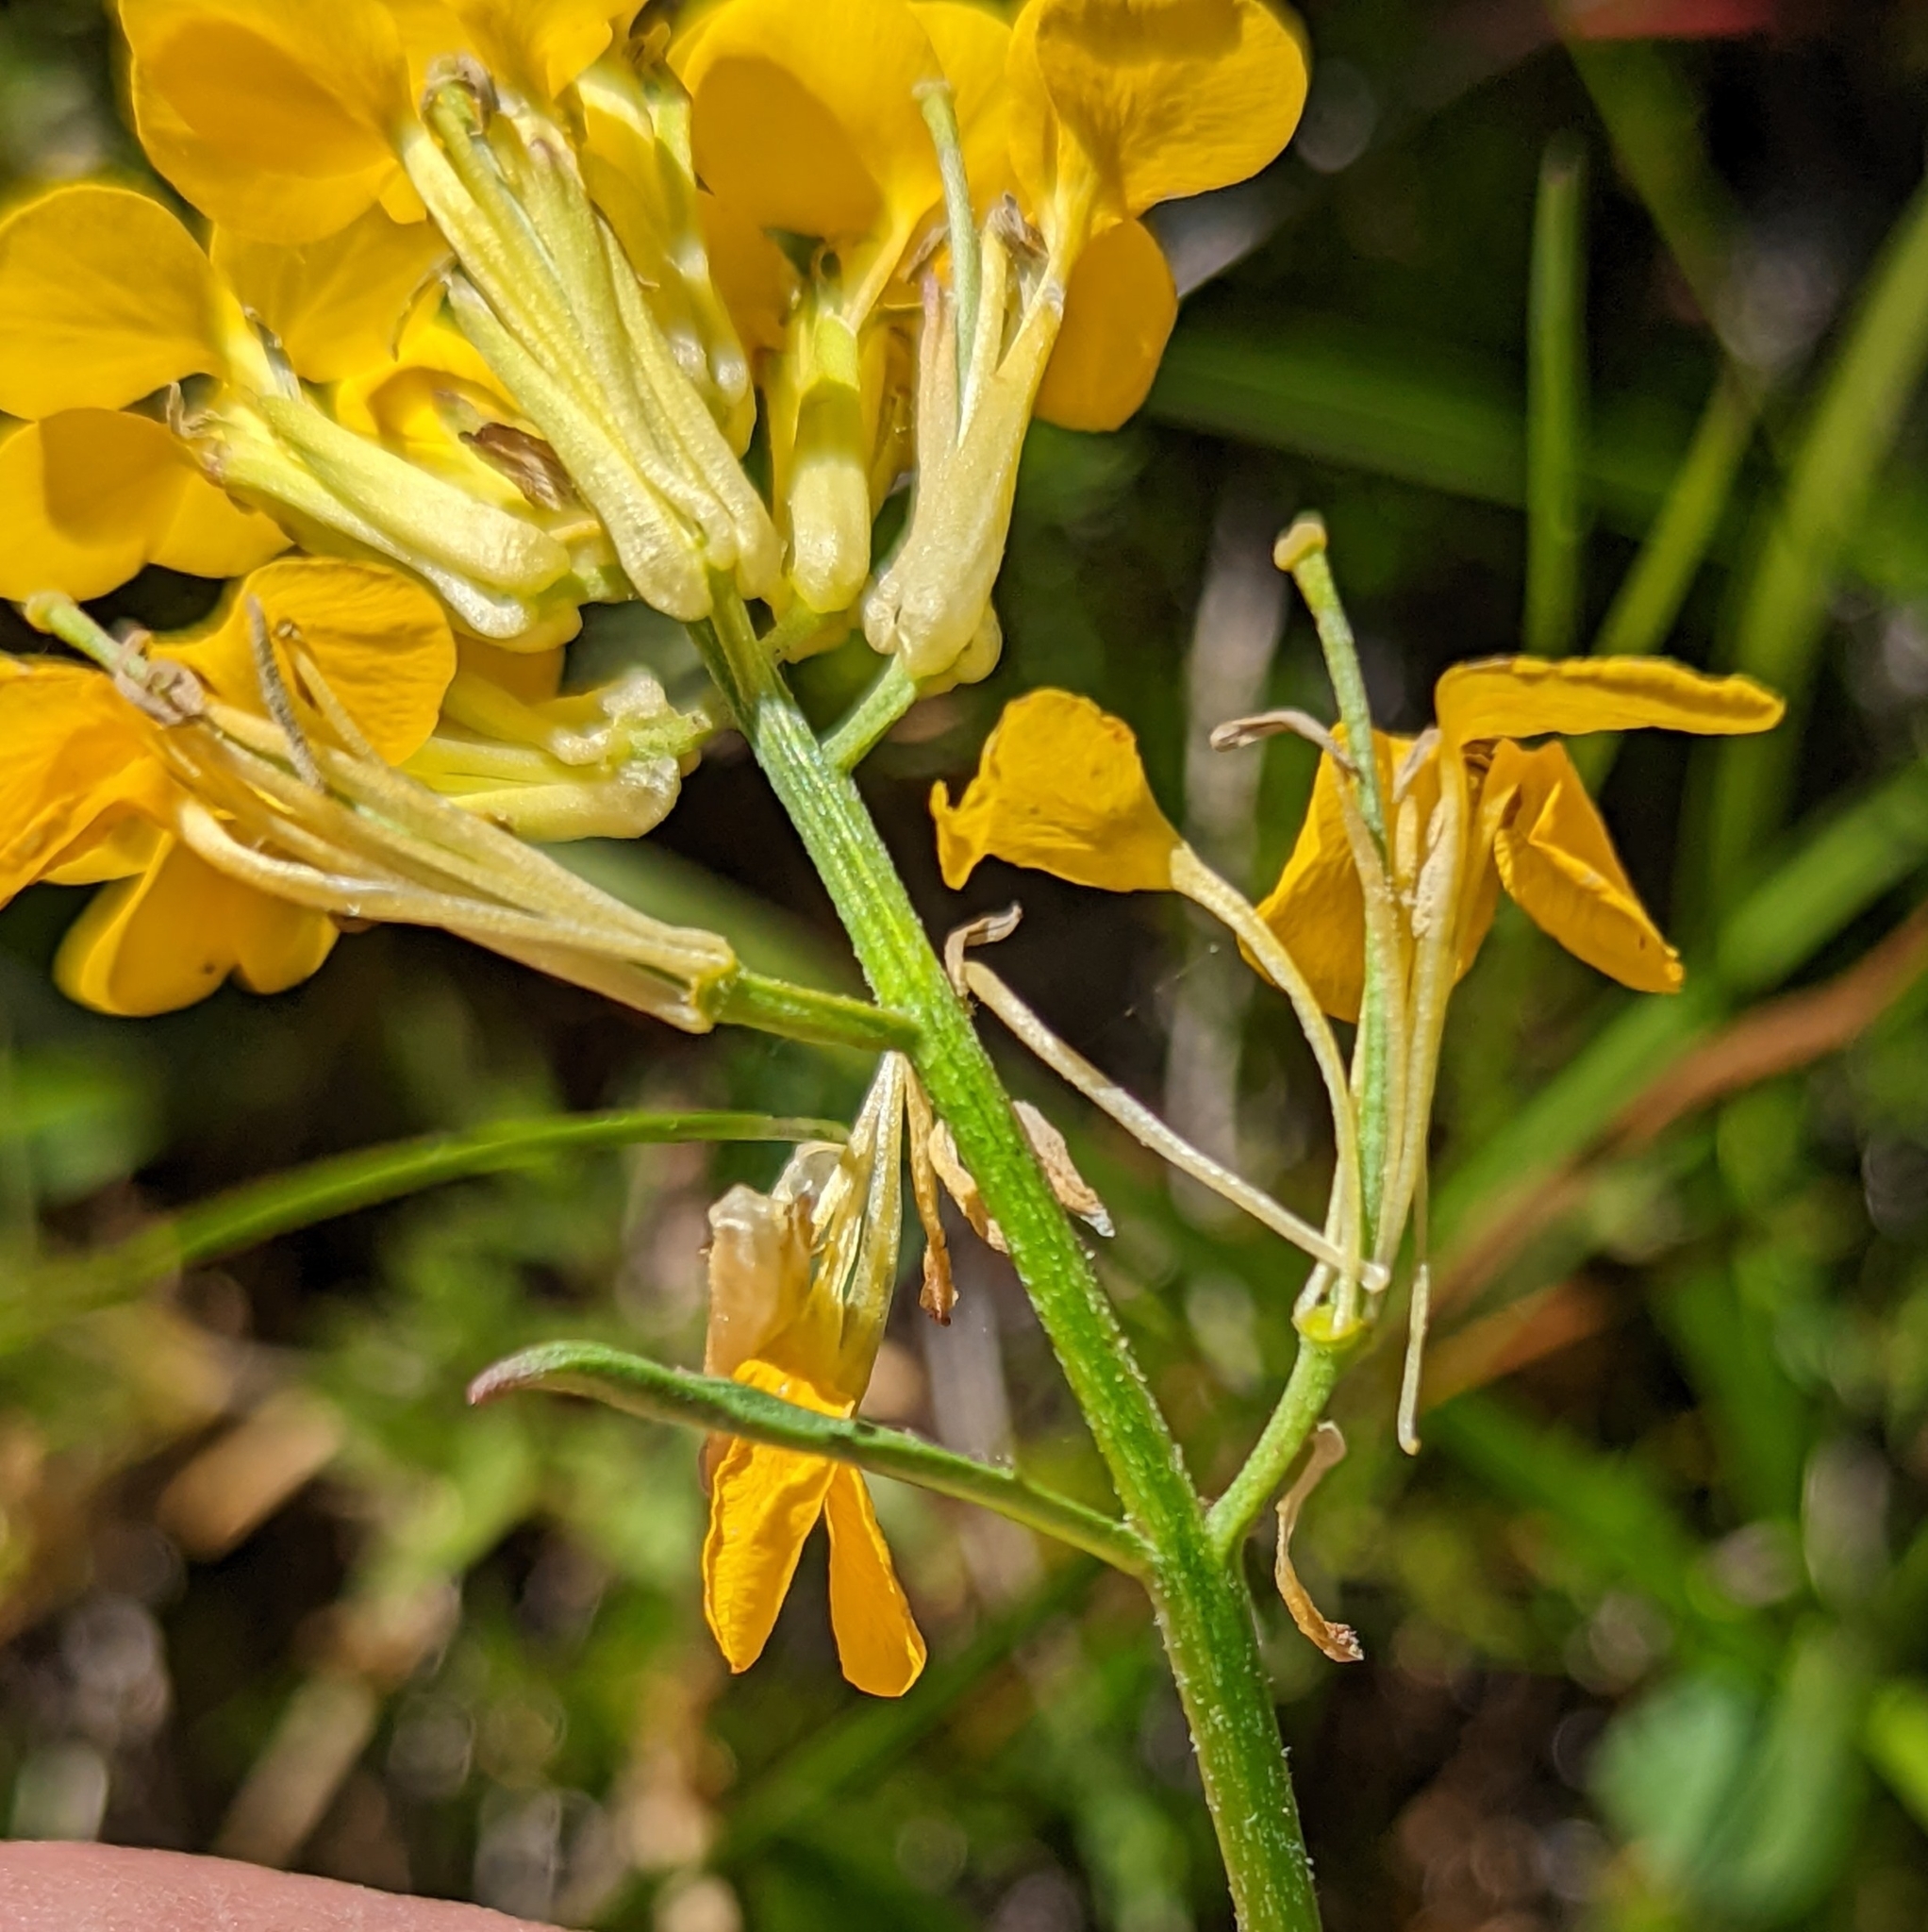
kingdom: Plantae
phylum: Tracheophyta
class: Magnoliopsida
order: Brassicales
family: Brassicaceae
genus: Erysimum
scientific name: Erysimum capitatum
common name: Western wallflower
